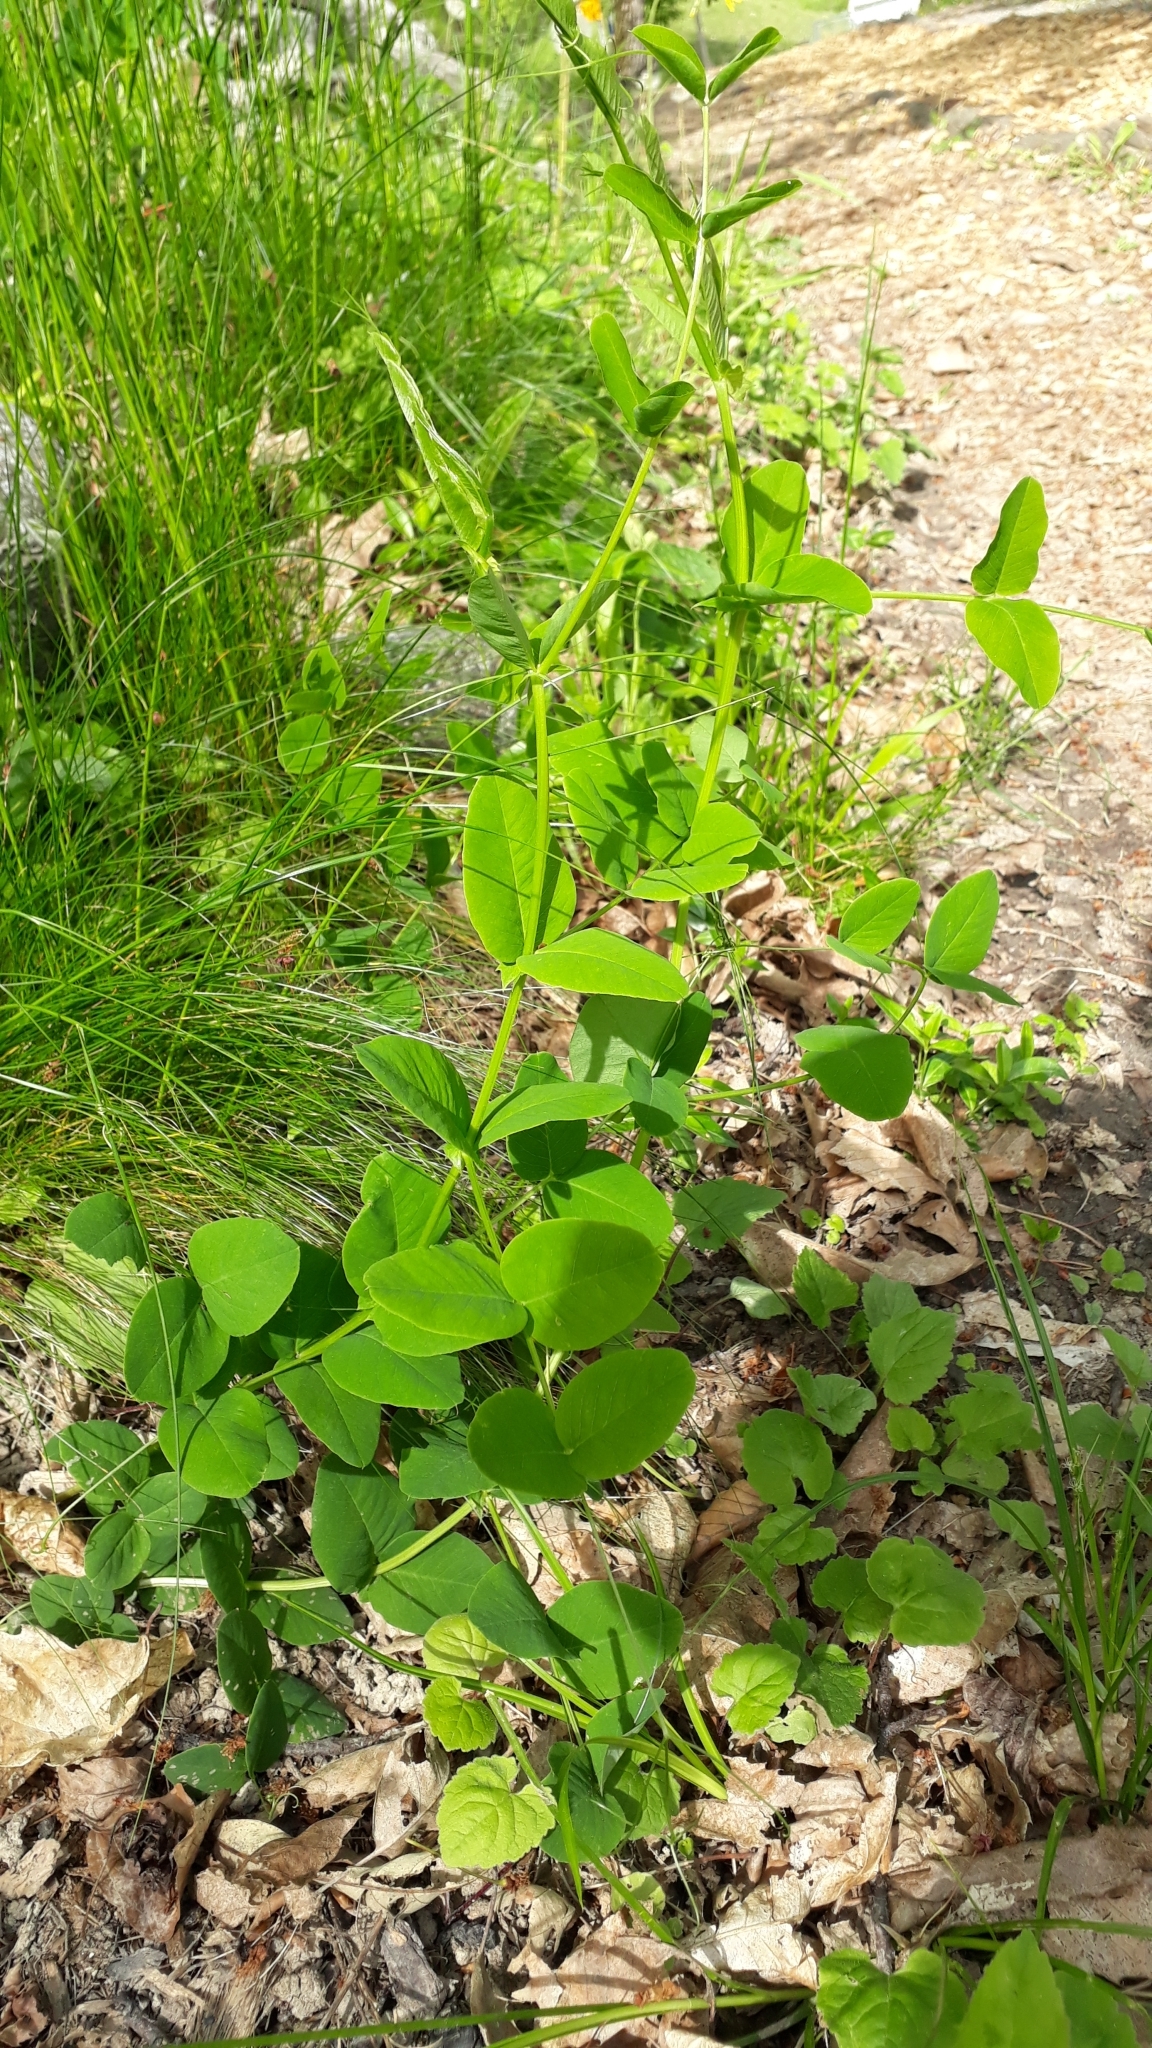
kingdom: Plantae
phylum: Tracheophyta
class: Magnoliopsida
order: Fabales
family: Fabaceae
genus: Vicia
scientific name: Vicia pisiformis
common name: Pale-flower vetch
